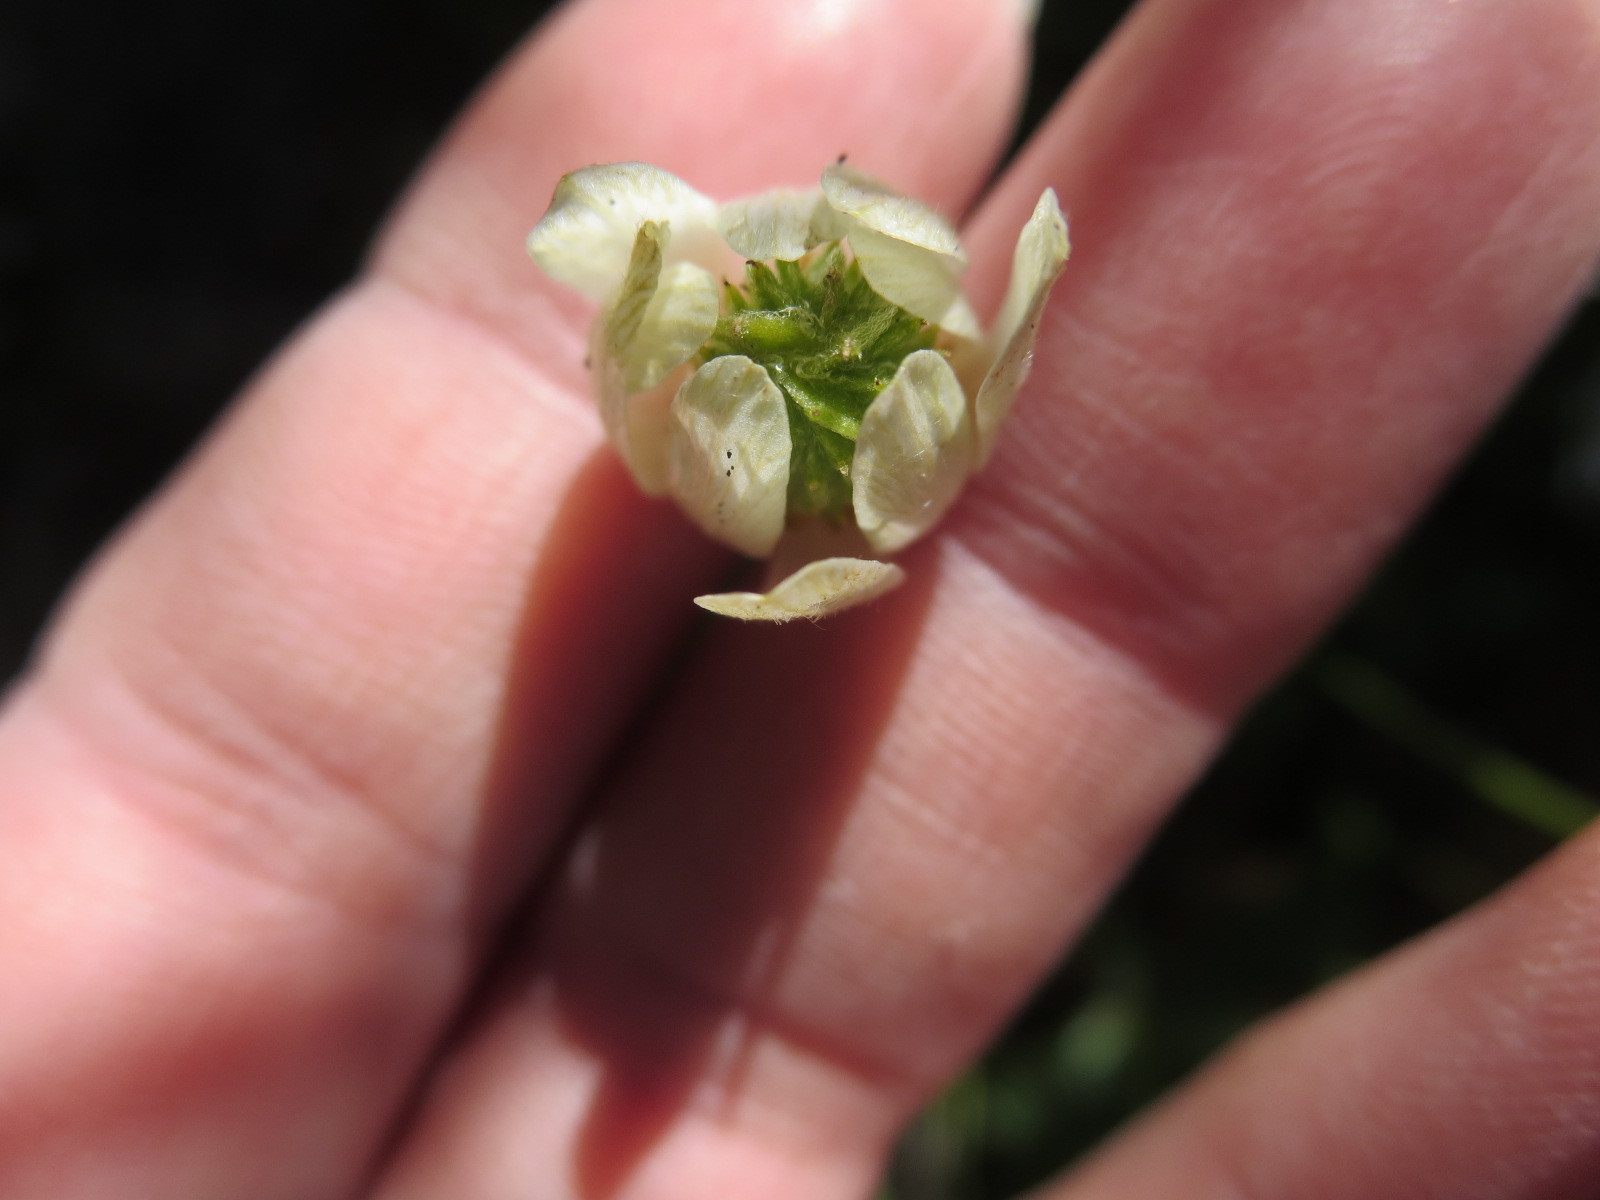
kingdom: Plantae
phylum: Tracheophyta
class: Magnoliopsida
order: Ranunculales
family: Ranunculaceae
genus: Anemone
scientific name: Anemone edwardsiana
